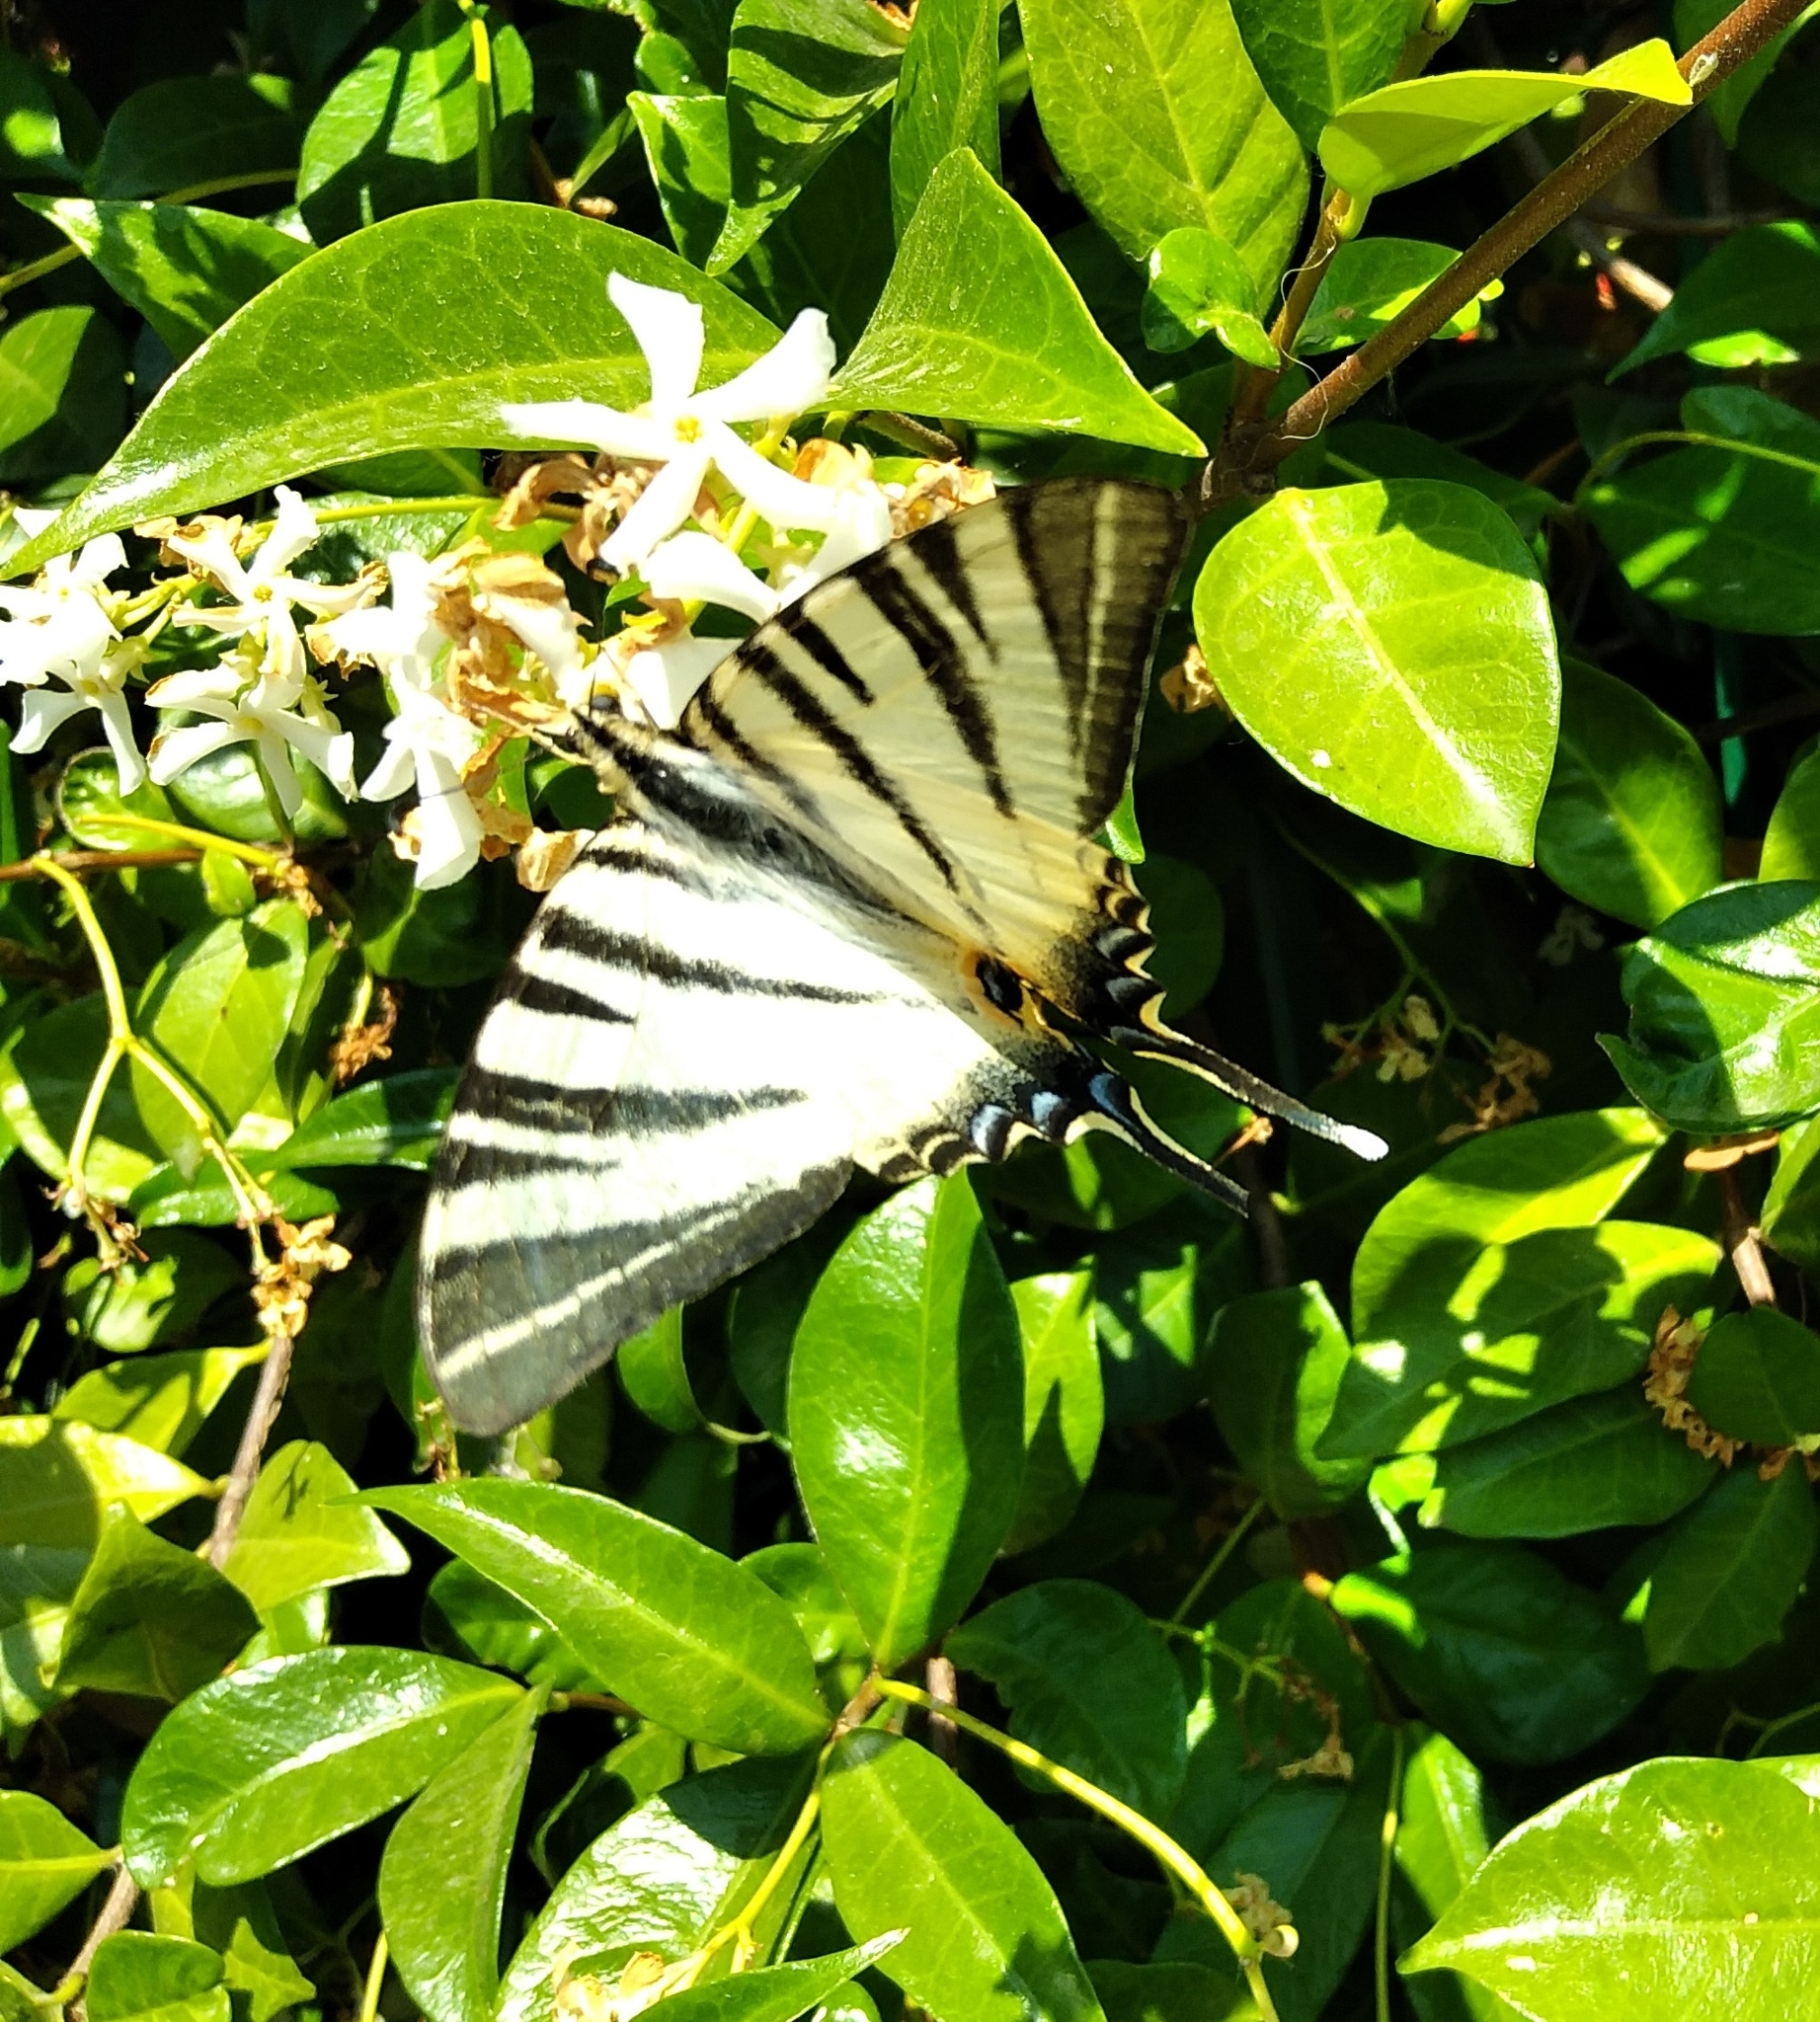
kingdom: Animalia
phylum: Arthropoda
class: Insecta
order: Lepidoptera
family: Papilionidae
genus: Iphiclides
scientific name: Iphiclides podalirius
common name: Scarce swallowtail
